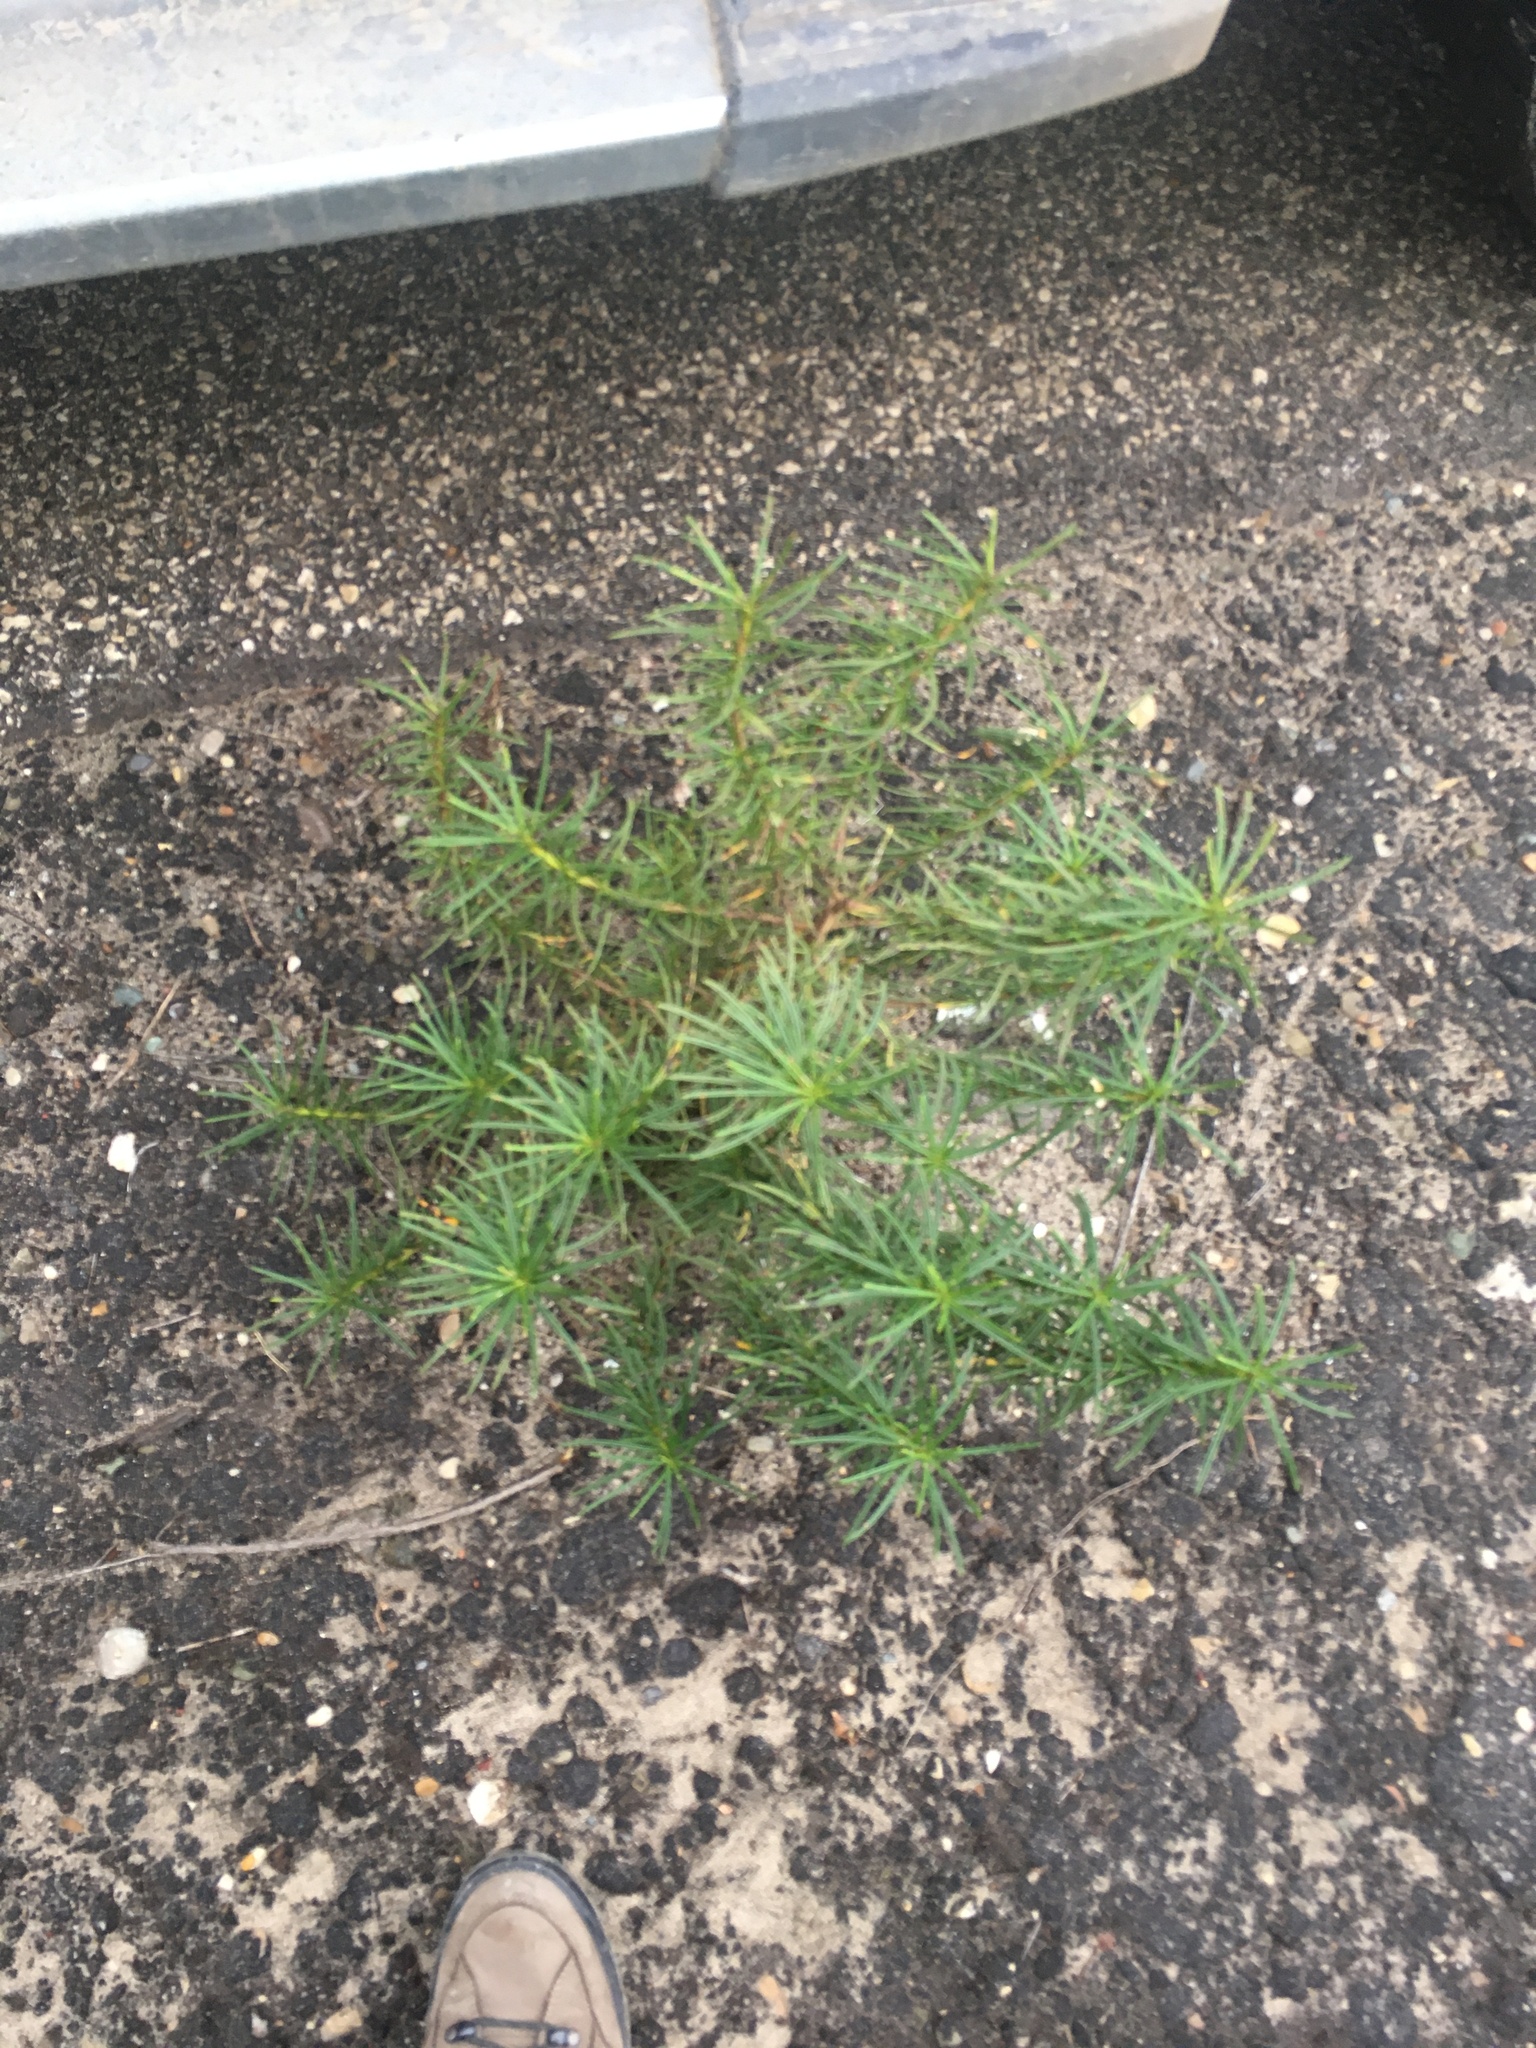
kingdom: Plantae
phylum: Tracheophyta
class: Magnoliopsida
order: Boraginales
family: Namaceae
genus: Eriodictyon
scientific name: Eriodictyon capitatum
